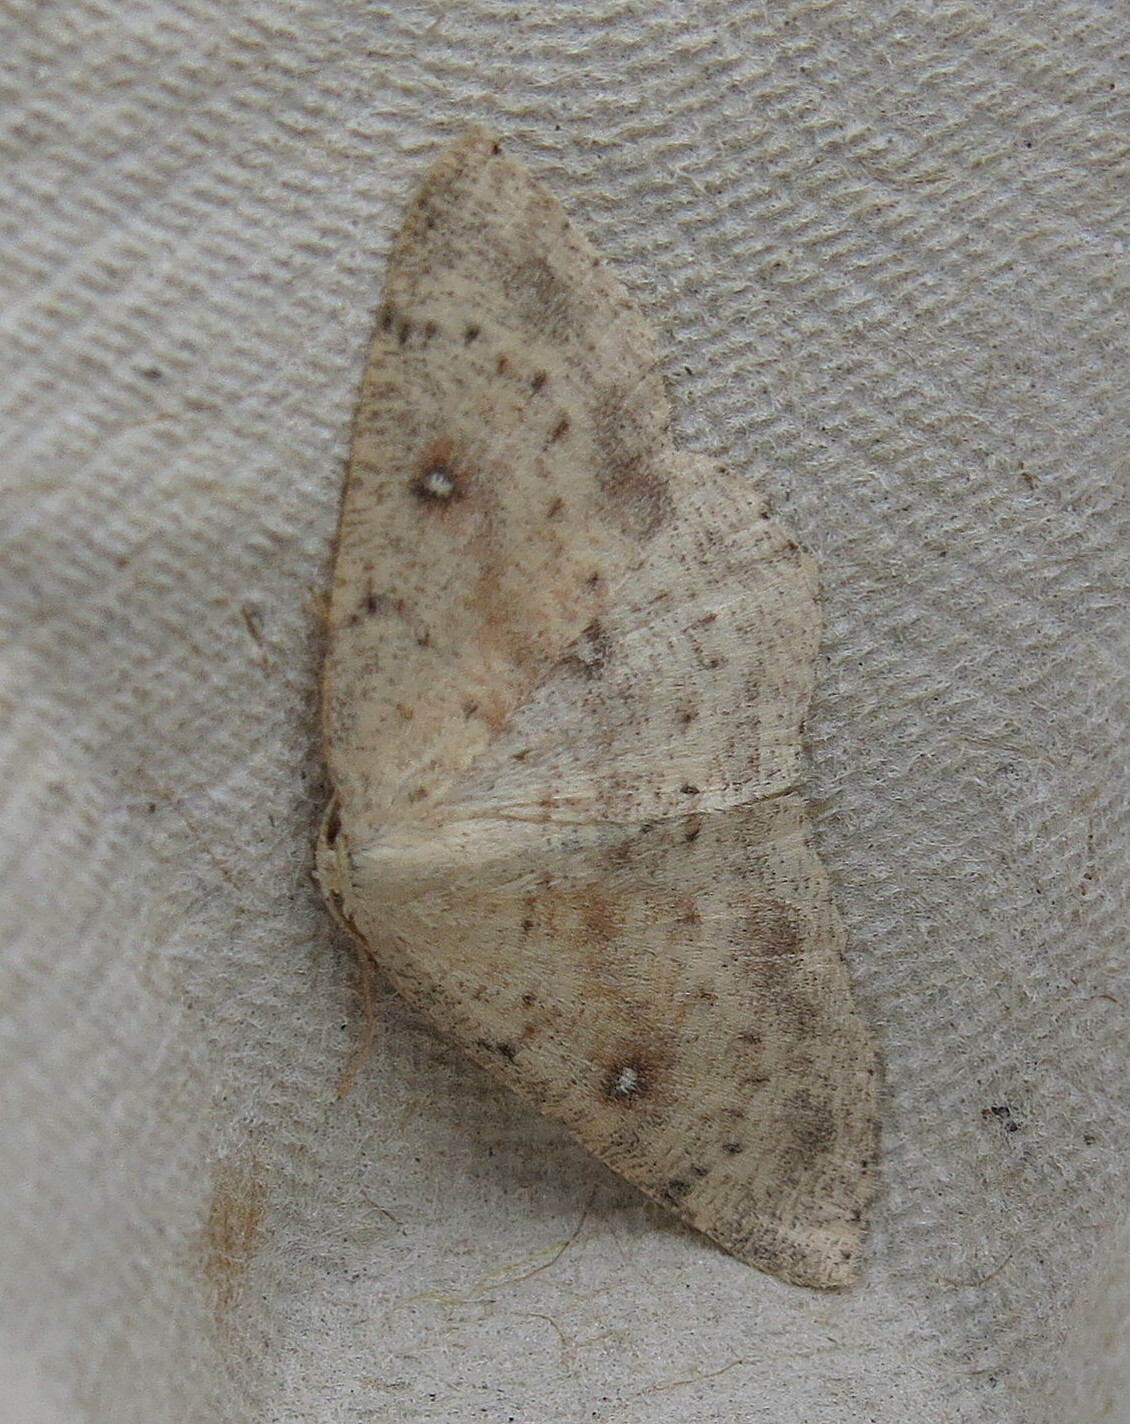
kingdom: Animalia
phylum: Arthropoda
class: Insecta
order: Lepidoptera
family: Geometridae
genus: Cyclophora
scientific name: Cyclophora albipunctata
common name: Birch mocha
